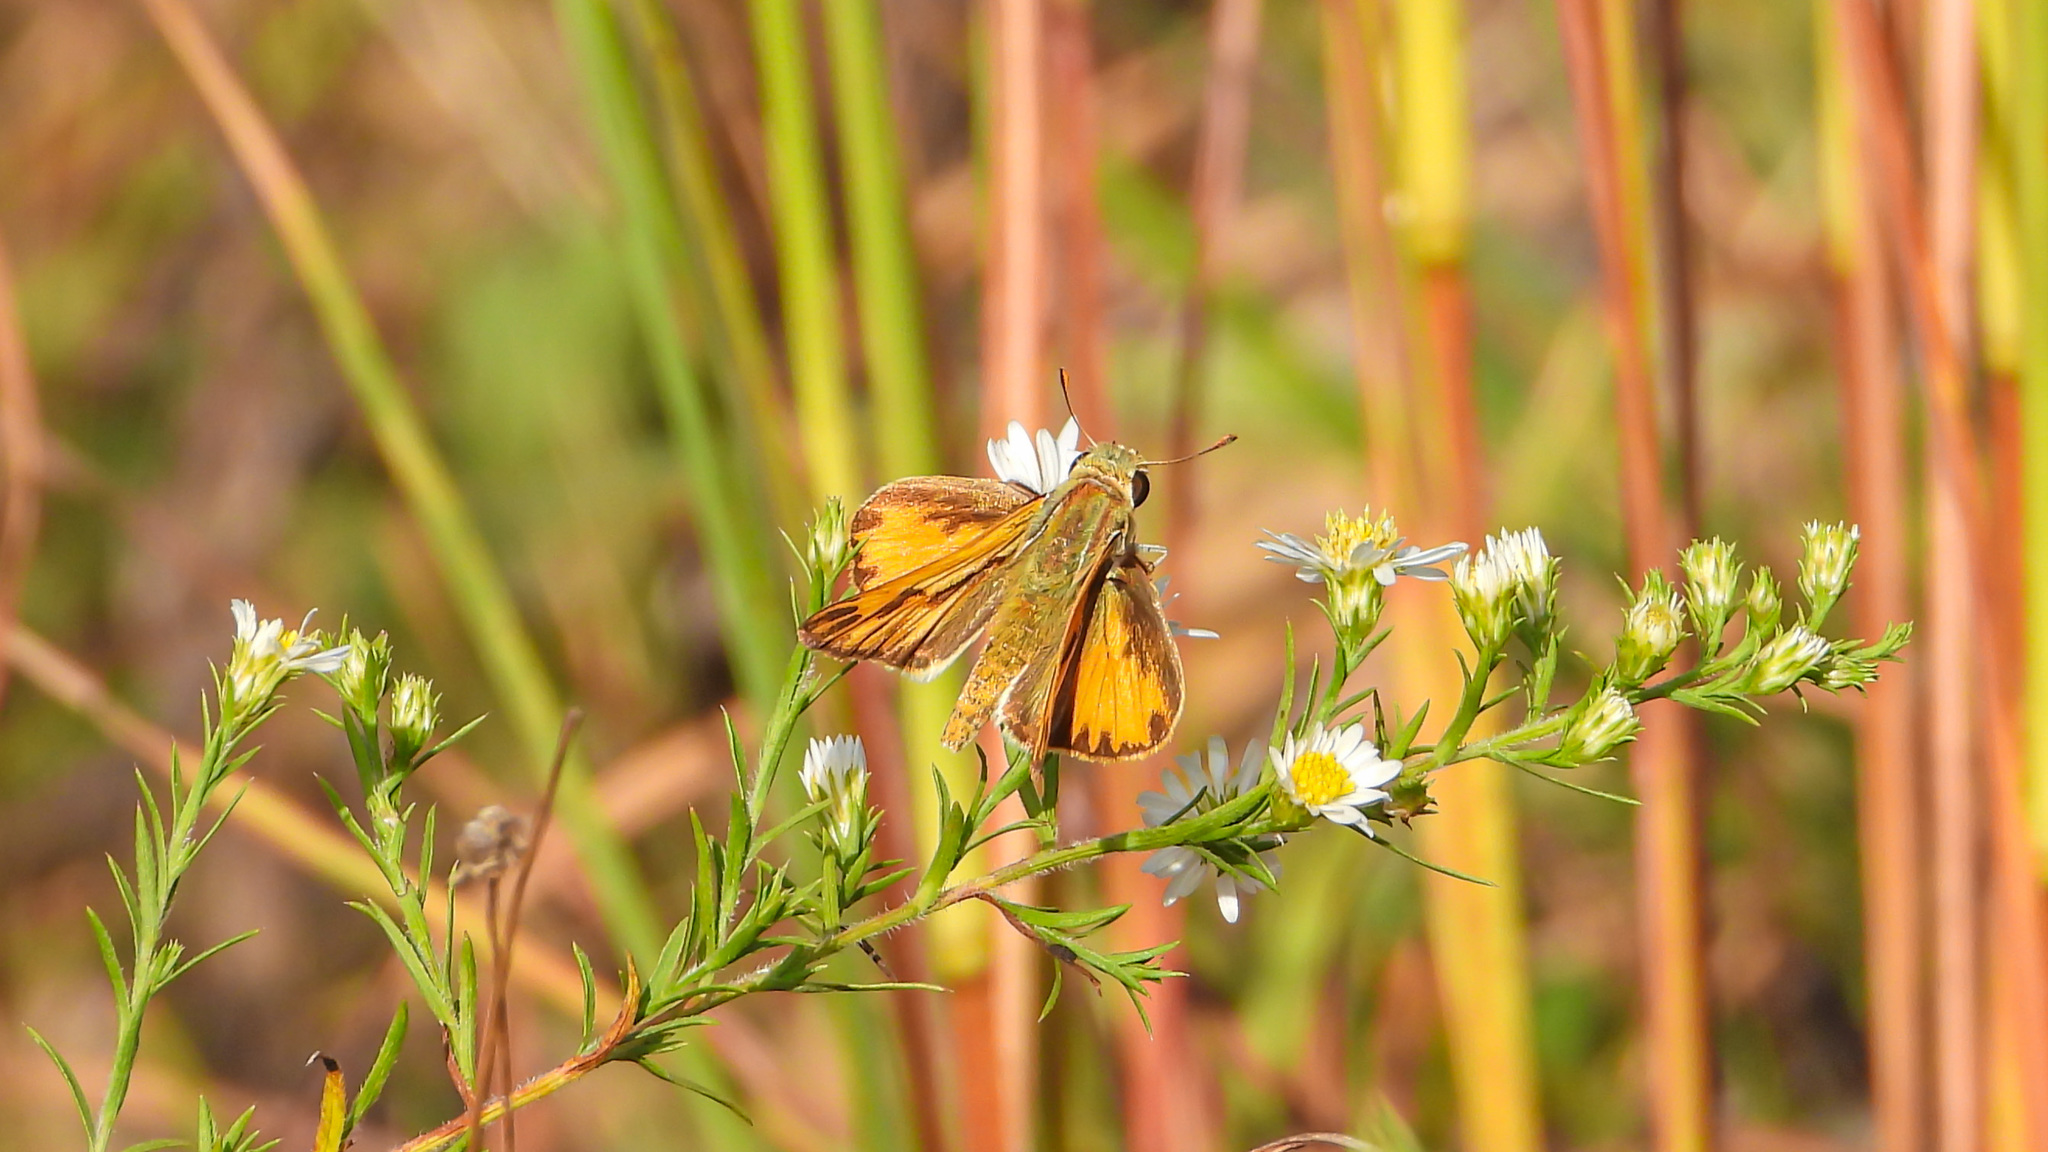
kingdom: Animalia
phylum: Arthropoda
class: Insecta
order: Lepidoptera
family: Hesperiidae
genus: Hylephila
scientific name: Hylephila phyleus
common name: Fiery skipper
